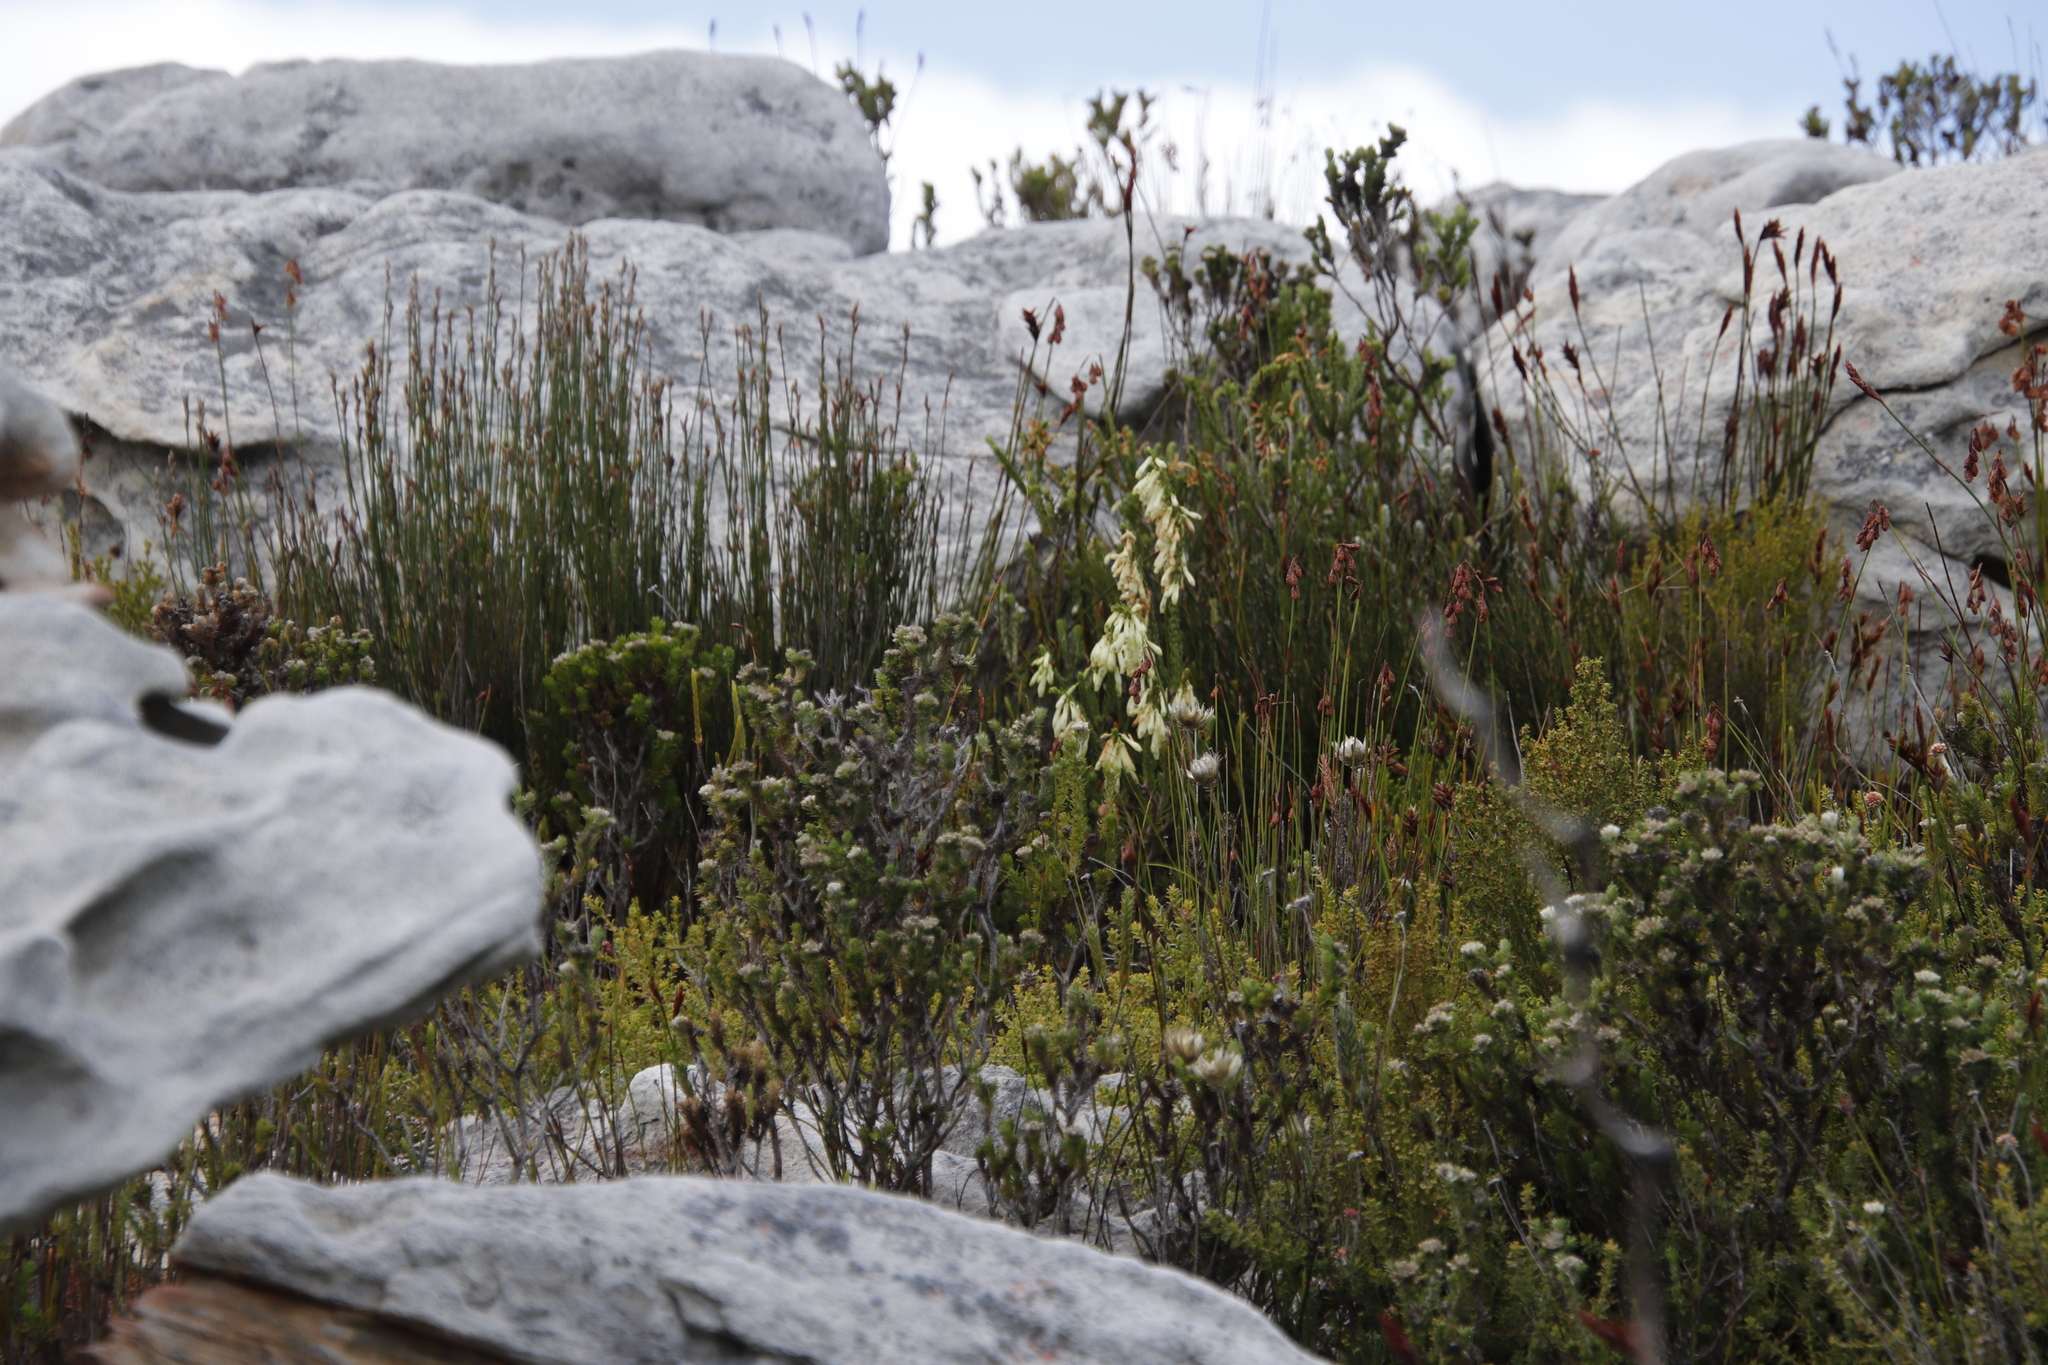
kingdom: Plantae
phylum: Tracheophyta
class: Magnoliopsida
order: Ericales
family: Ericaceae
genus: Erica
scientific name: Erica mammosa
